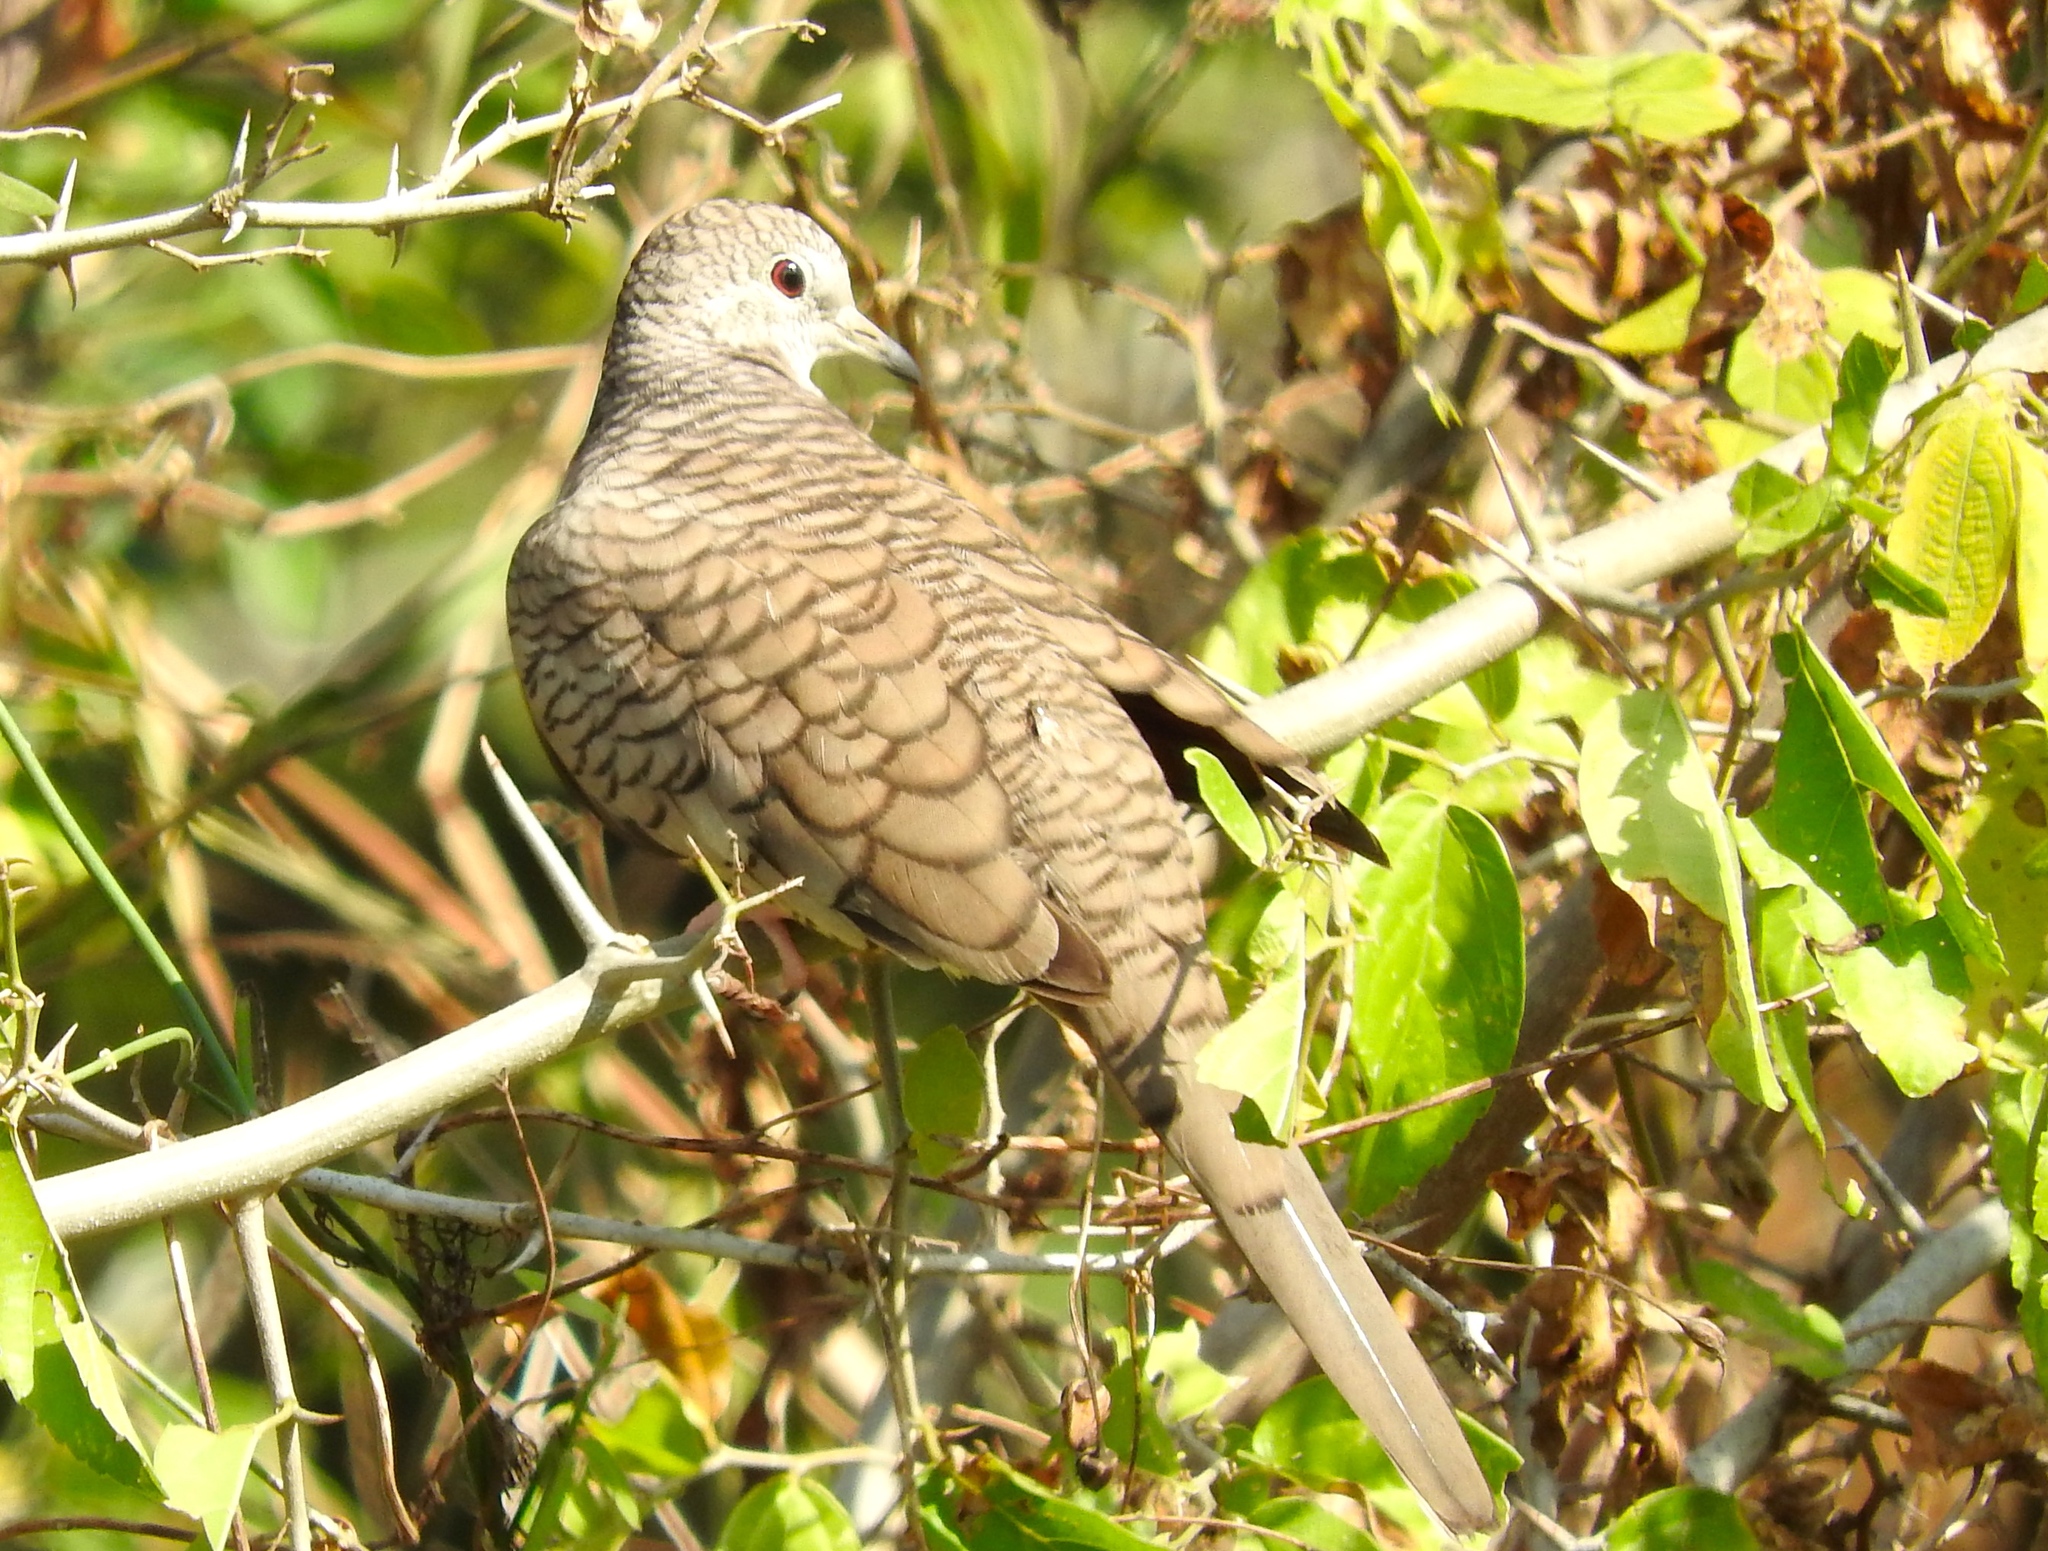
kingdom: Animalia
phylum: Chordata
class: Aves
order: Columbiformes
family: Columbidae
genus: Columbina
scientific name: Columbina inca
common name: Inca dove
